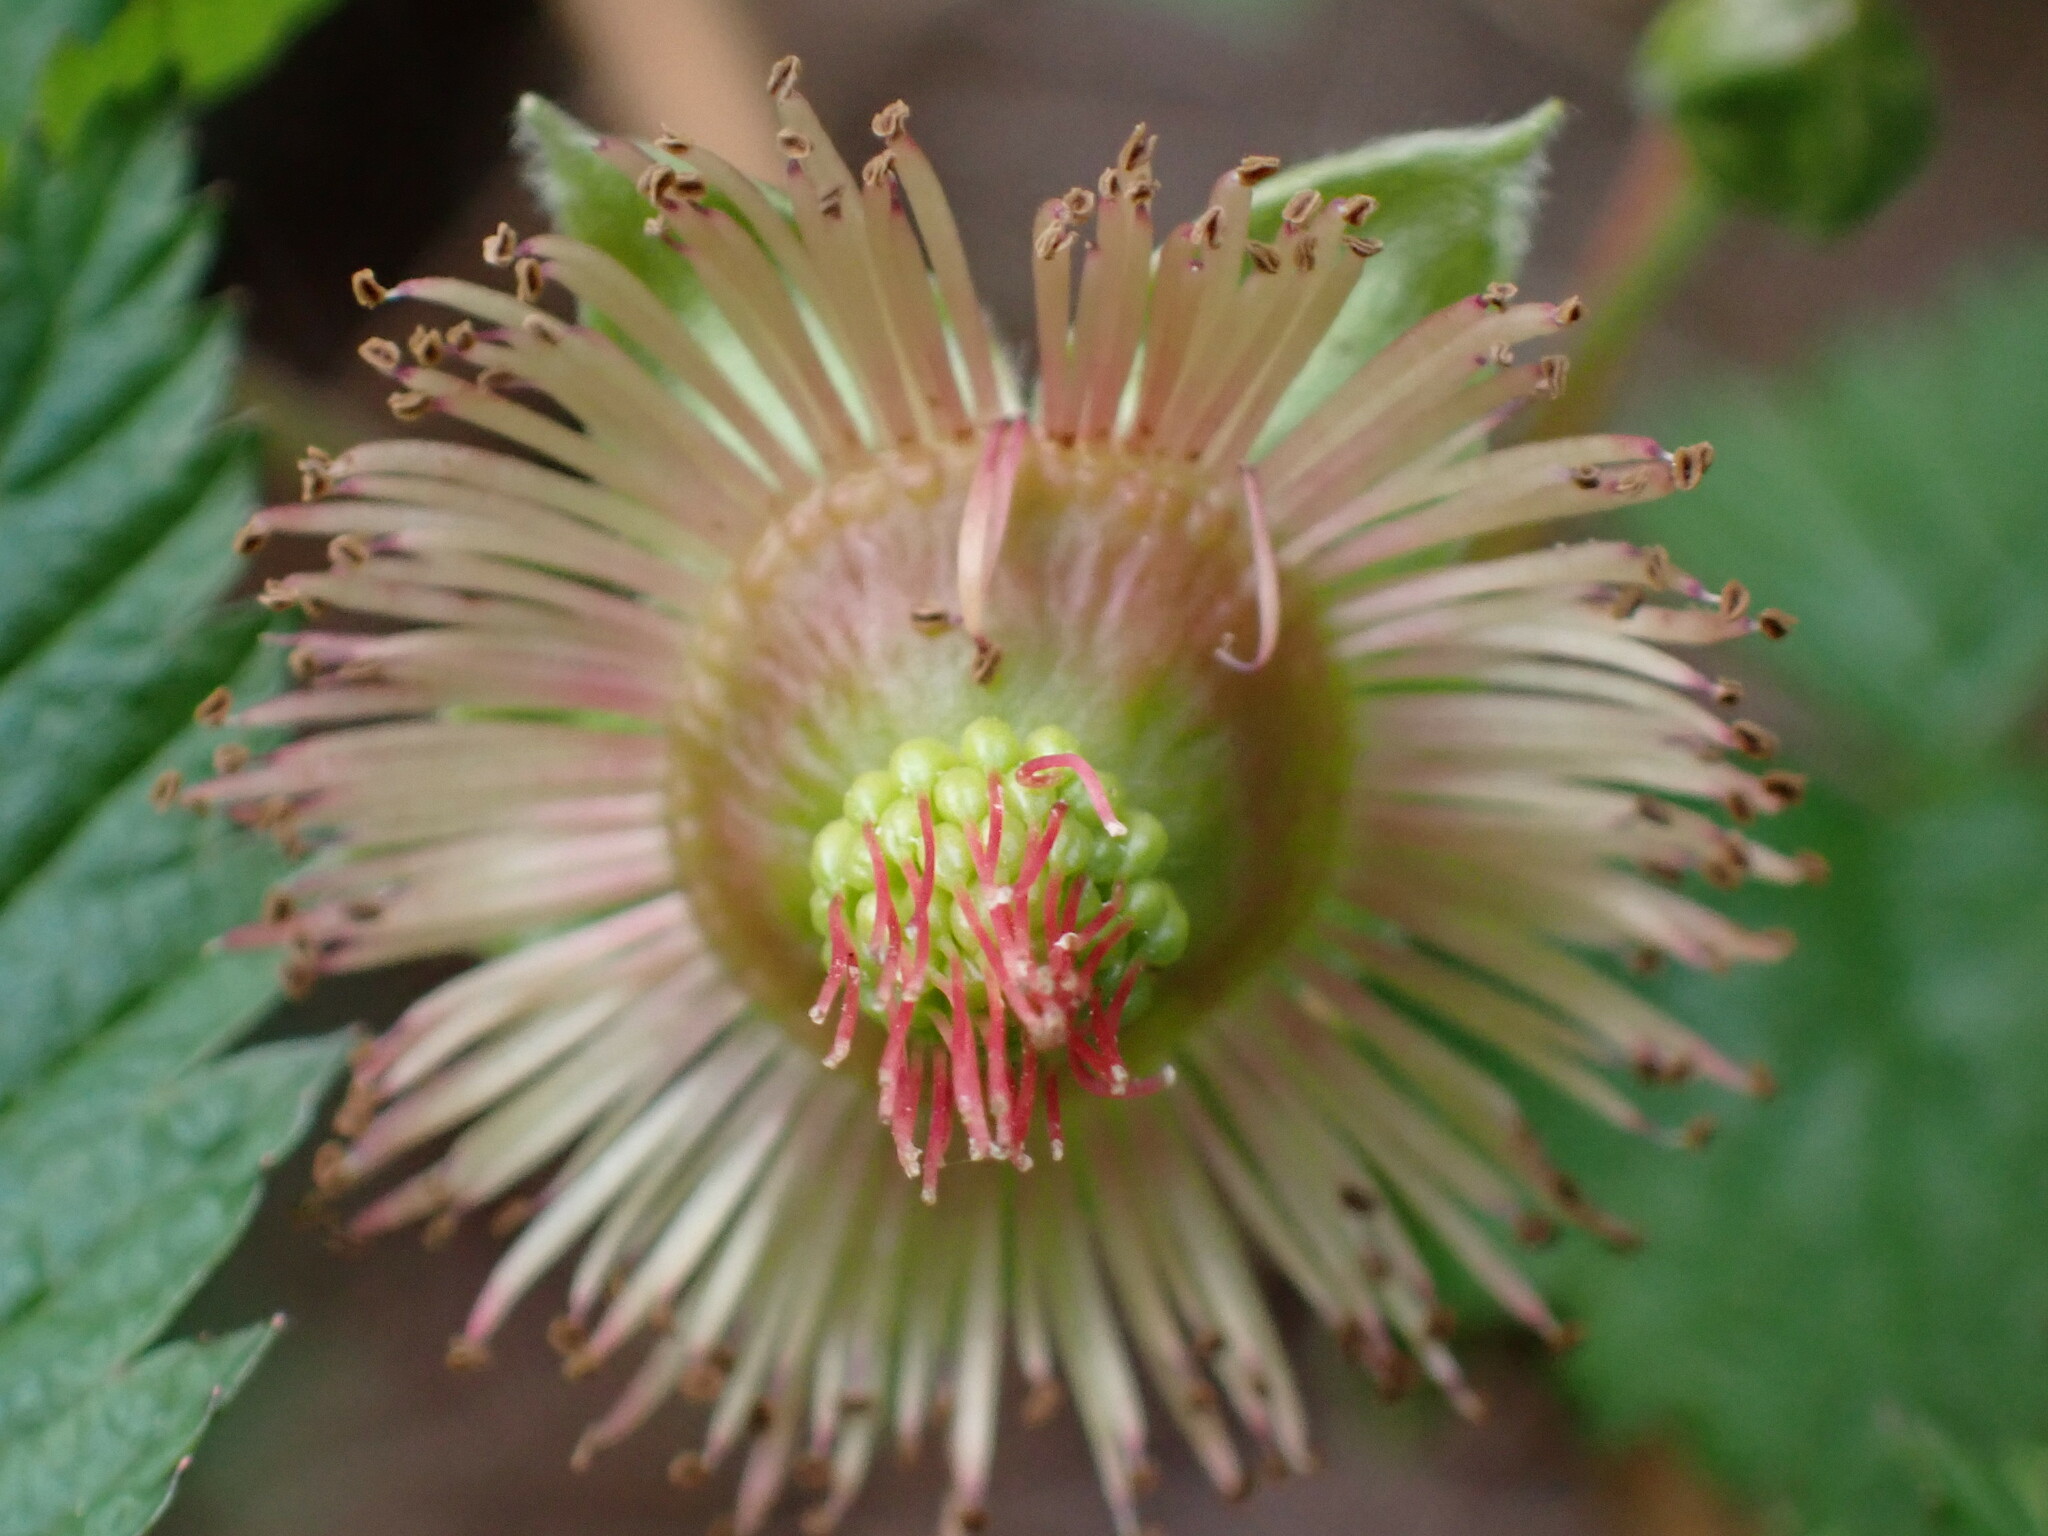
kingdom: Plantae
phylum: Tracheophyta
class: Magnoliopsida
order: Rosales
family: Rosaceae
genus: Rubus
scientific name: Rubus spectabilis
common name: Salmonberry
